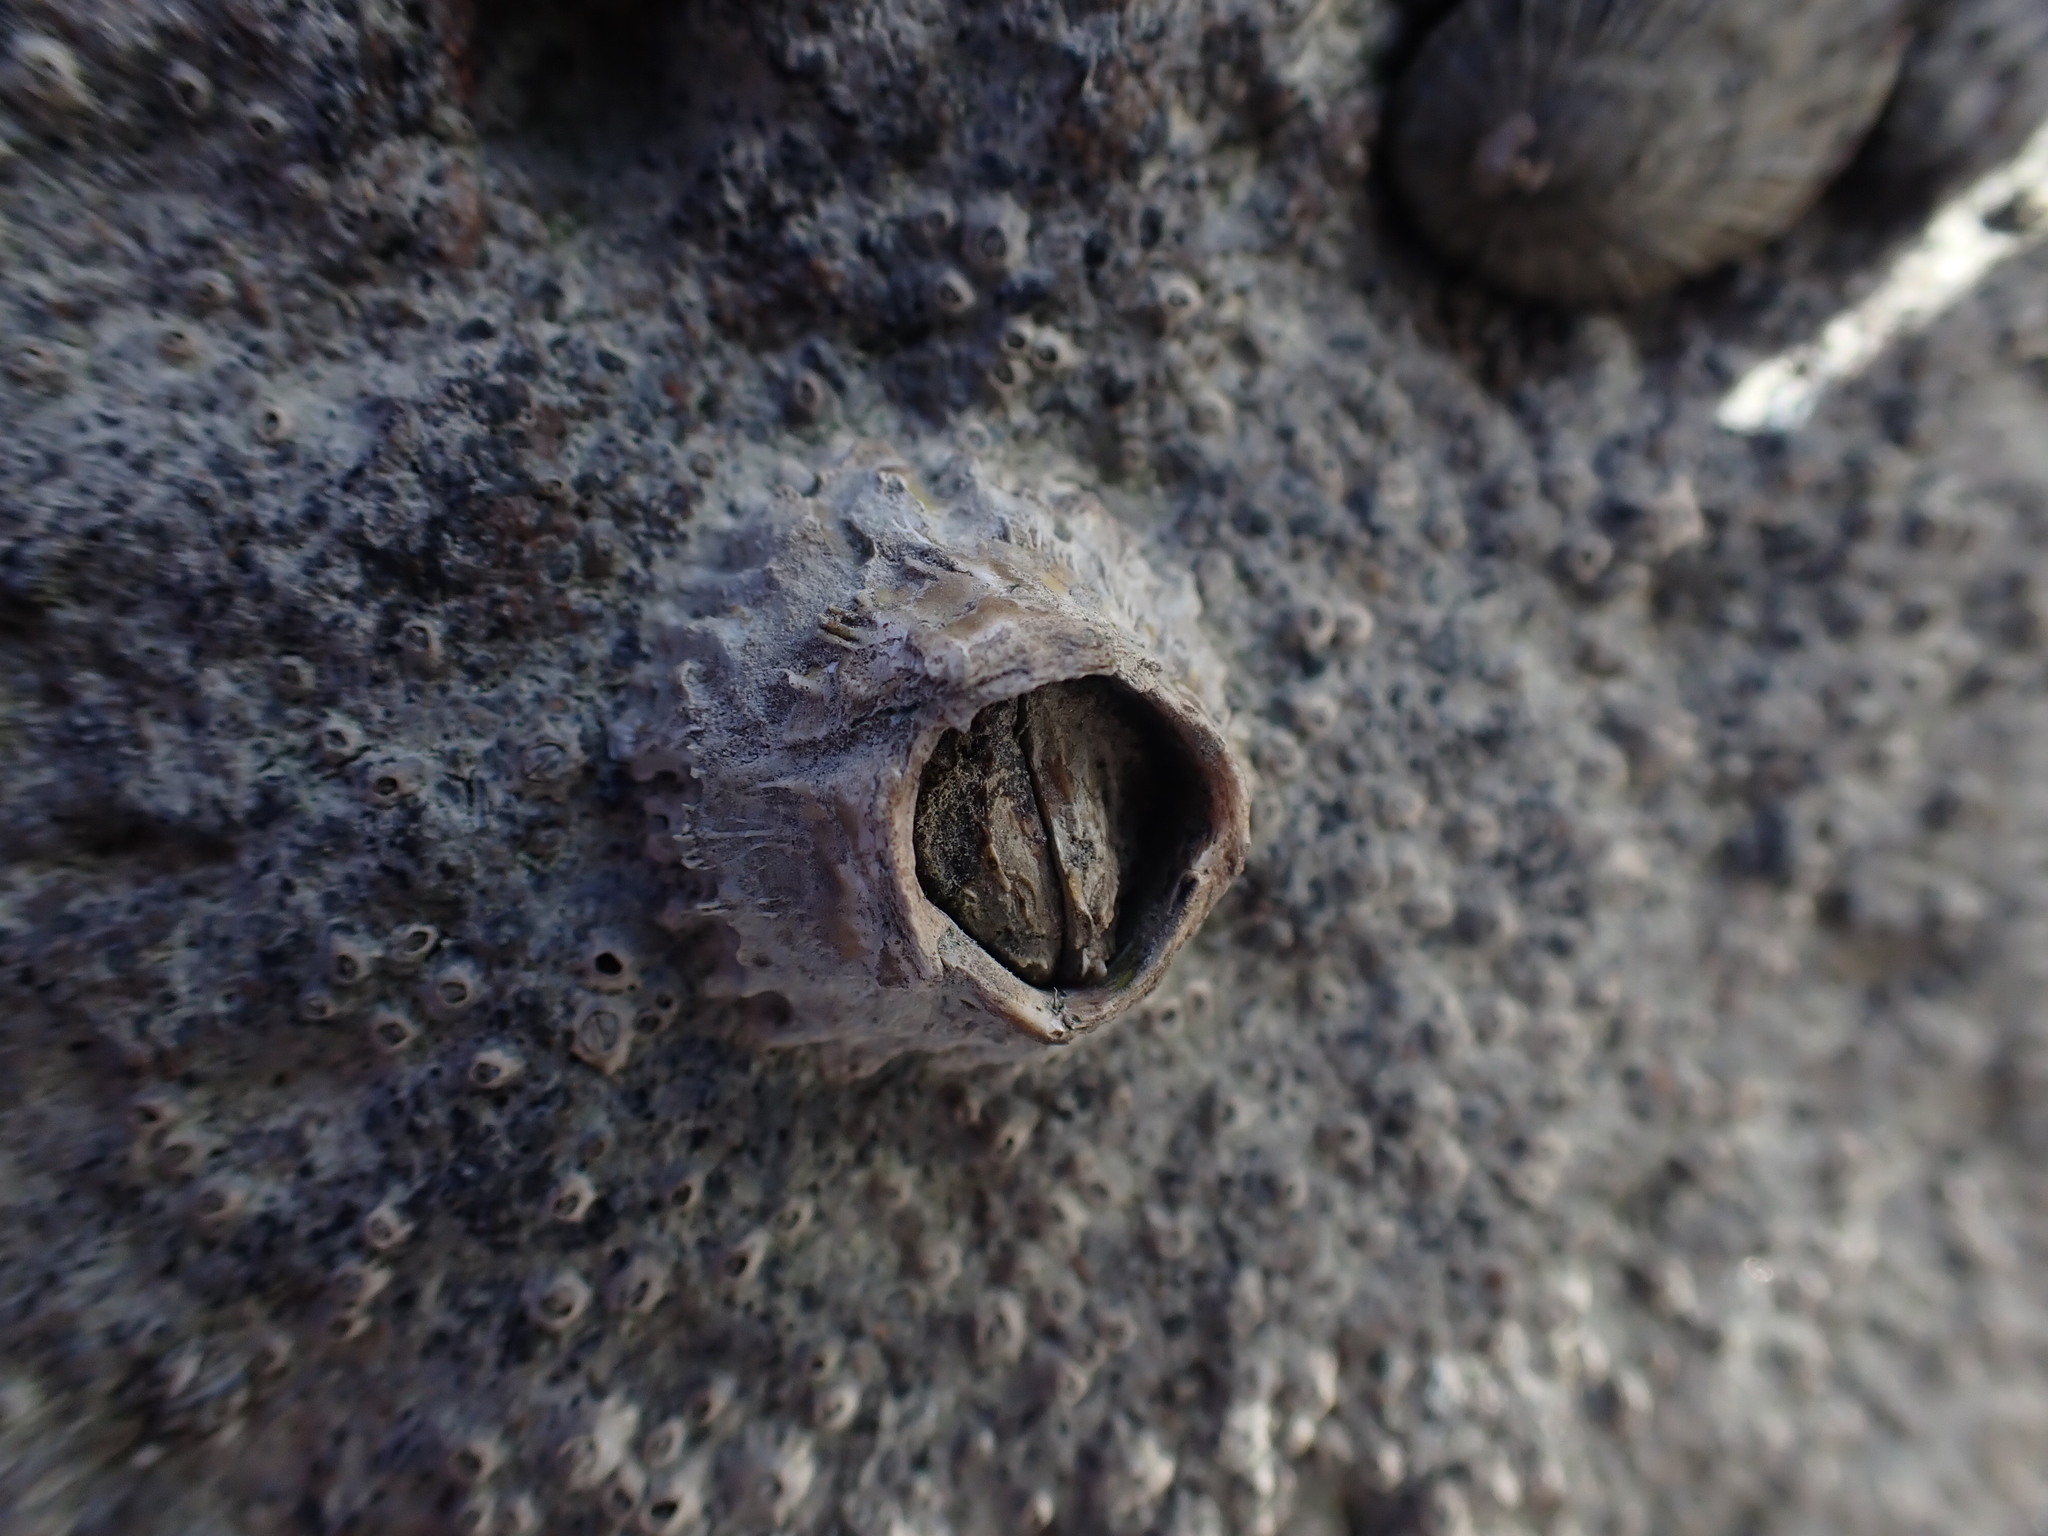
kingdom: Animalia
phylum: Arthropoda
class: Maxillopoda
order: Sessilia
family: Tetraclitidae
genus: Epopella
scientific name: Epopella plicata
